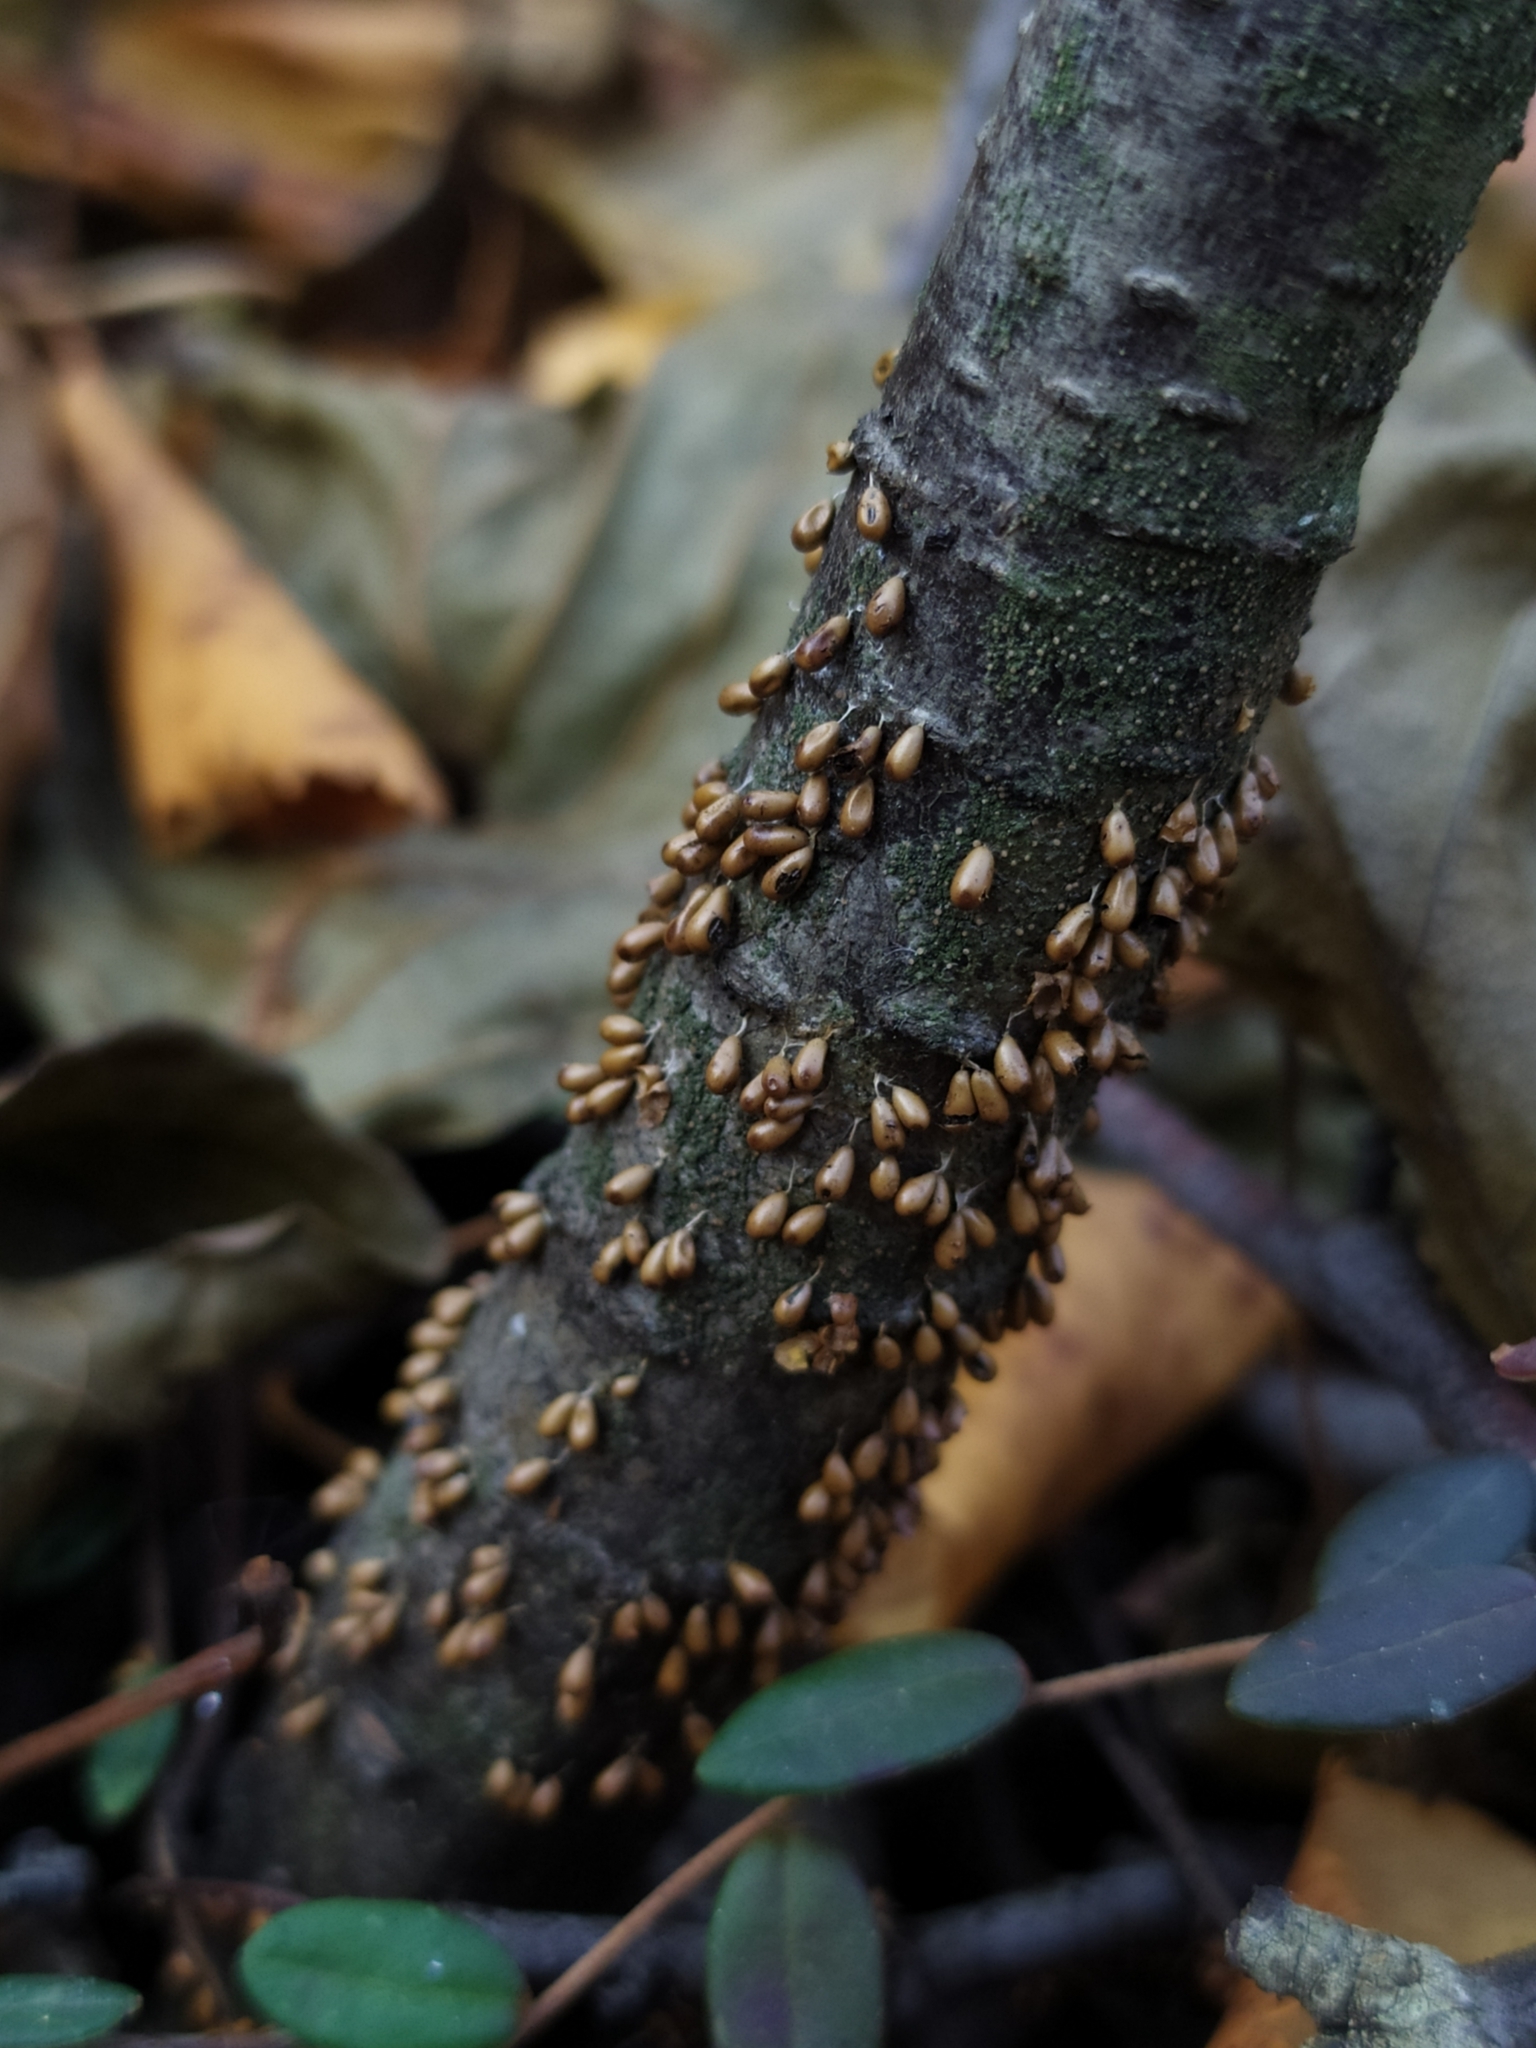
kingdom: Protozoa
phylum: Mycetozoa
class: Myxomycetes
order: Physarales
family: Physaraceae
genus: Leocarpus
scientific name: Leocarpus fragilis
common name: Insect-egg slime
